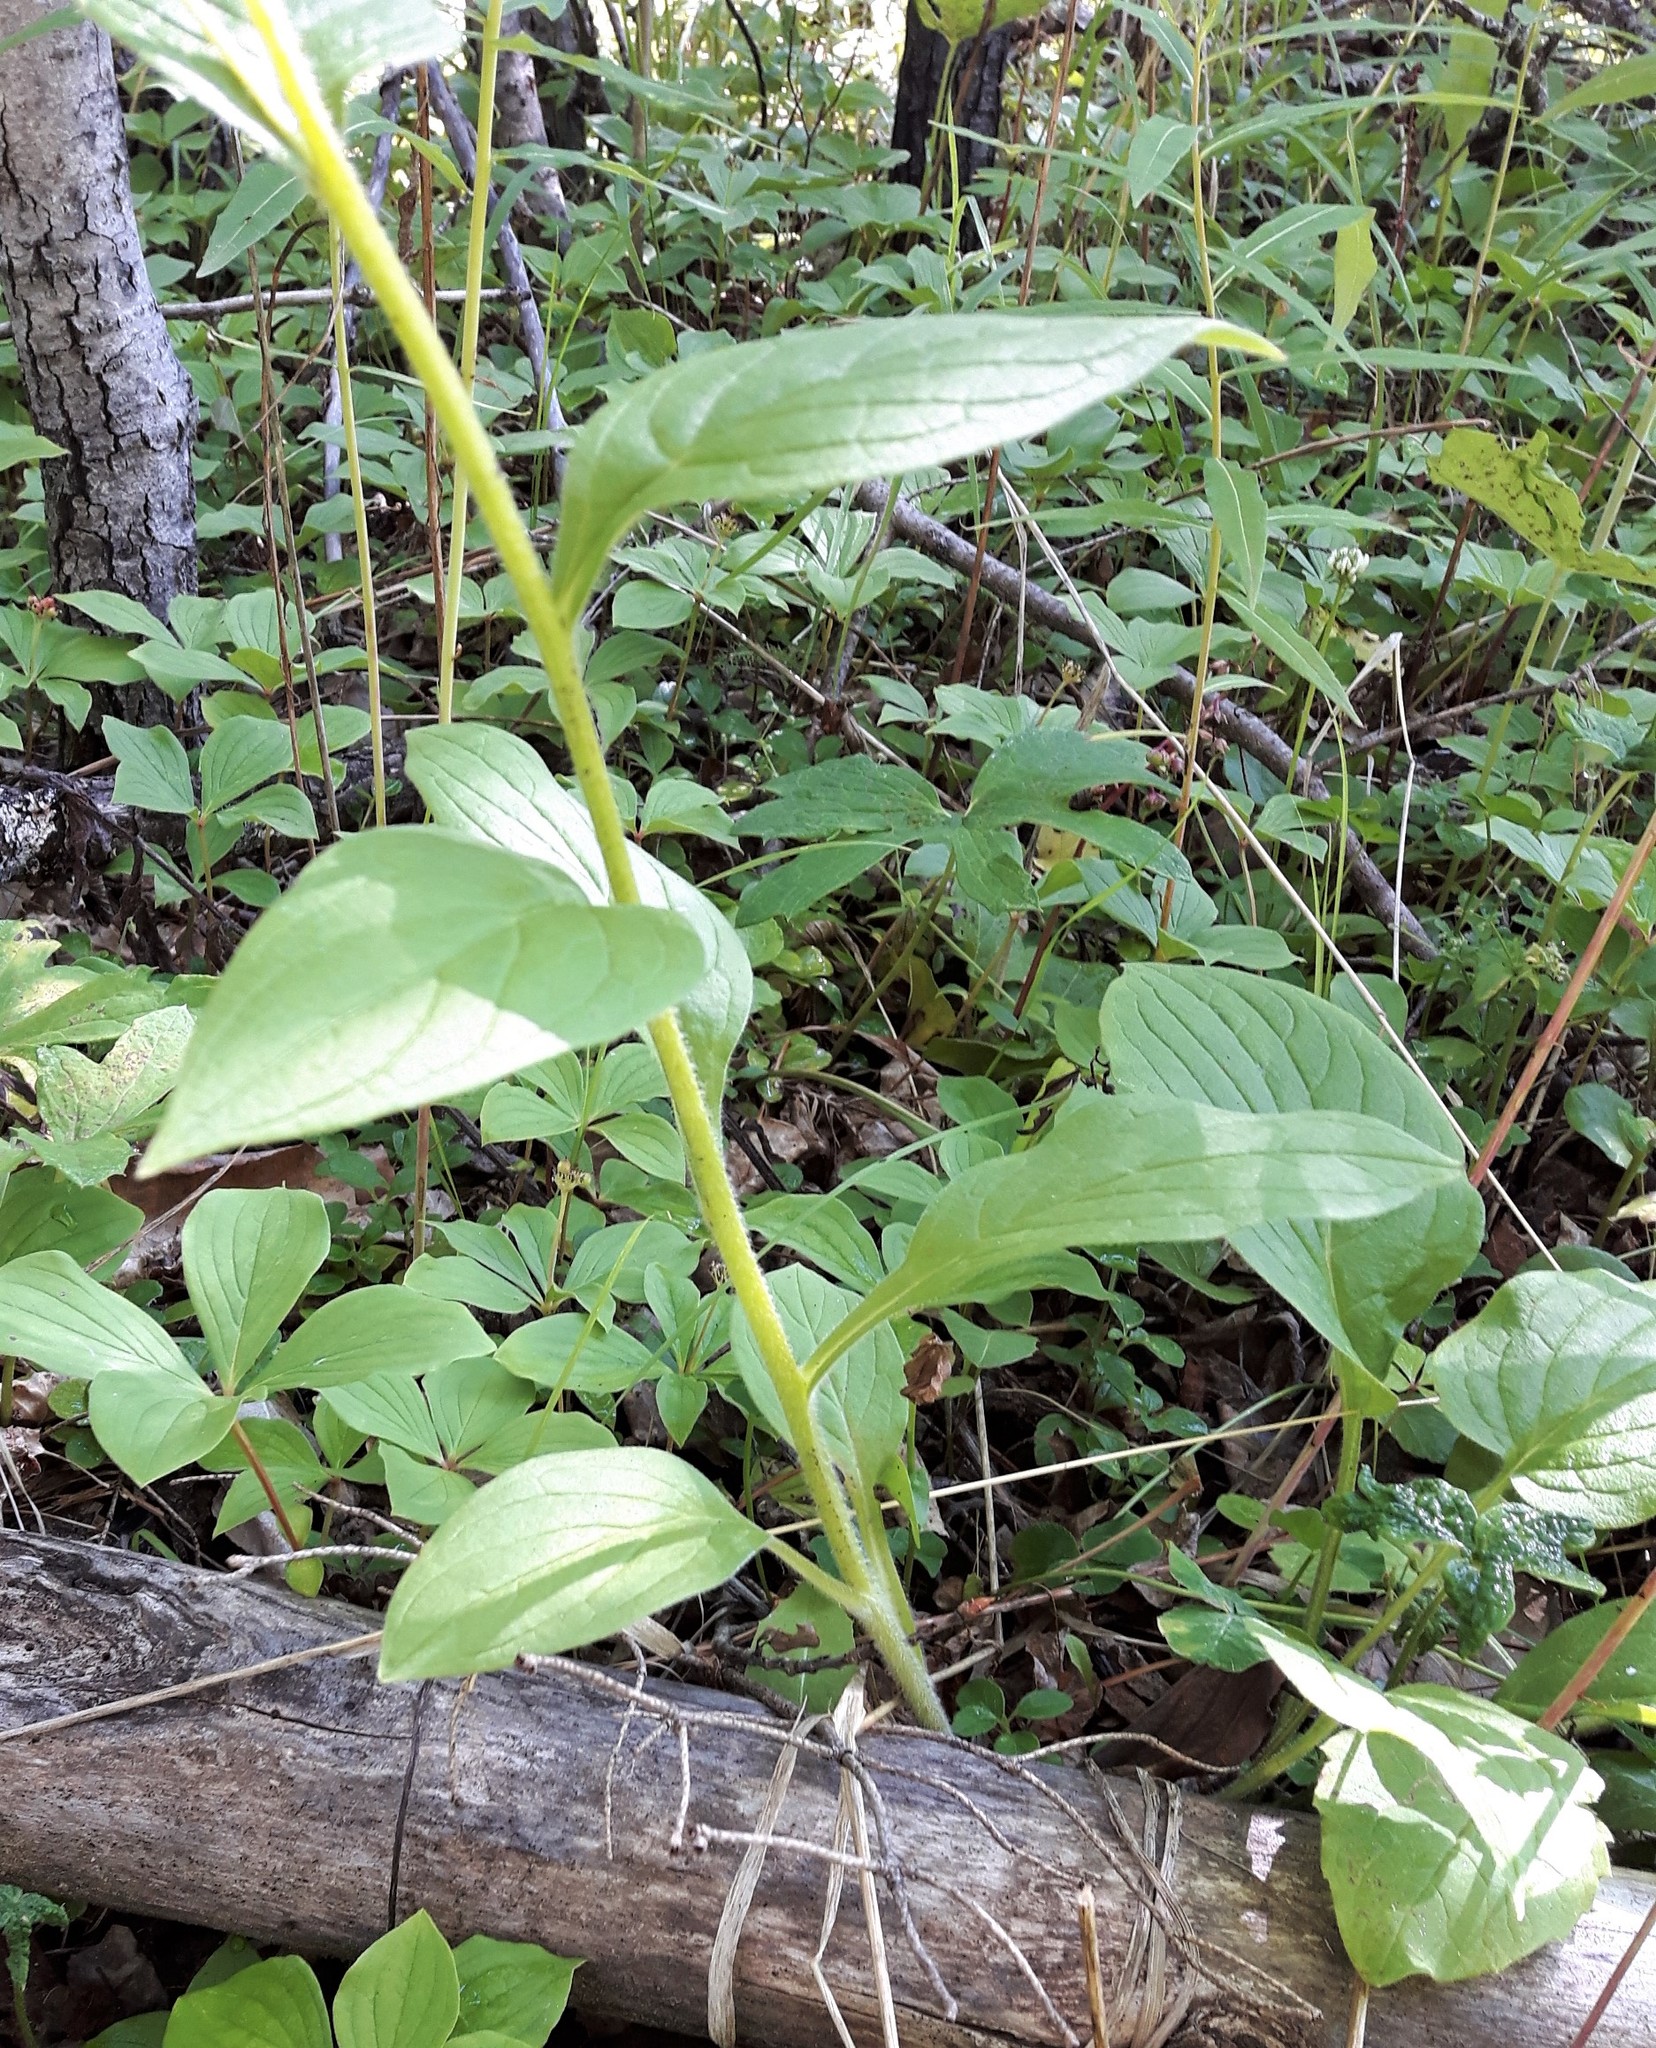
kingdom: Plantae
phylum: Tracheophyta
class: Magnoliopsida
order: Boraginales
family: Boraginaceae
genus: Mertensia
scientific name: Mertensia paniculata
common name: Panicled bluebells
